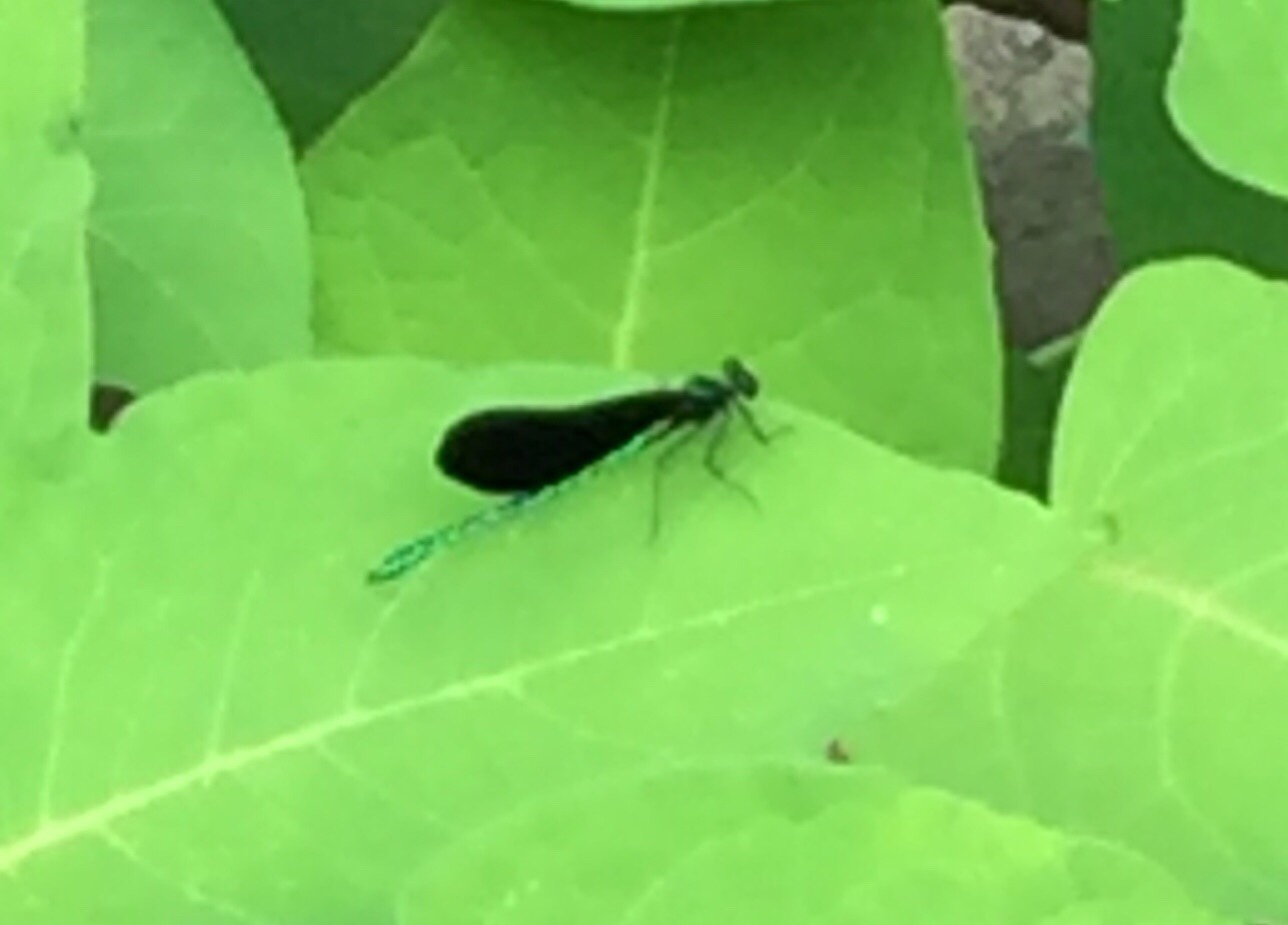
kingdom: Animalia
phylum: Arthropoda
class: Insecta
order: Odonata
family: Calopterygidae
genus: Calopteryx
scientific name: Calopteryx maculata
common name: Ebony jewelwing
